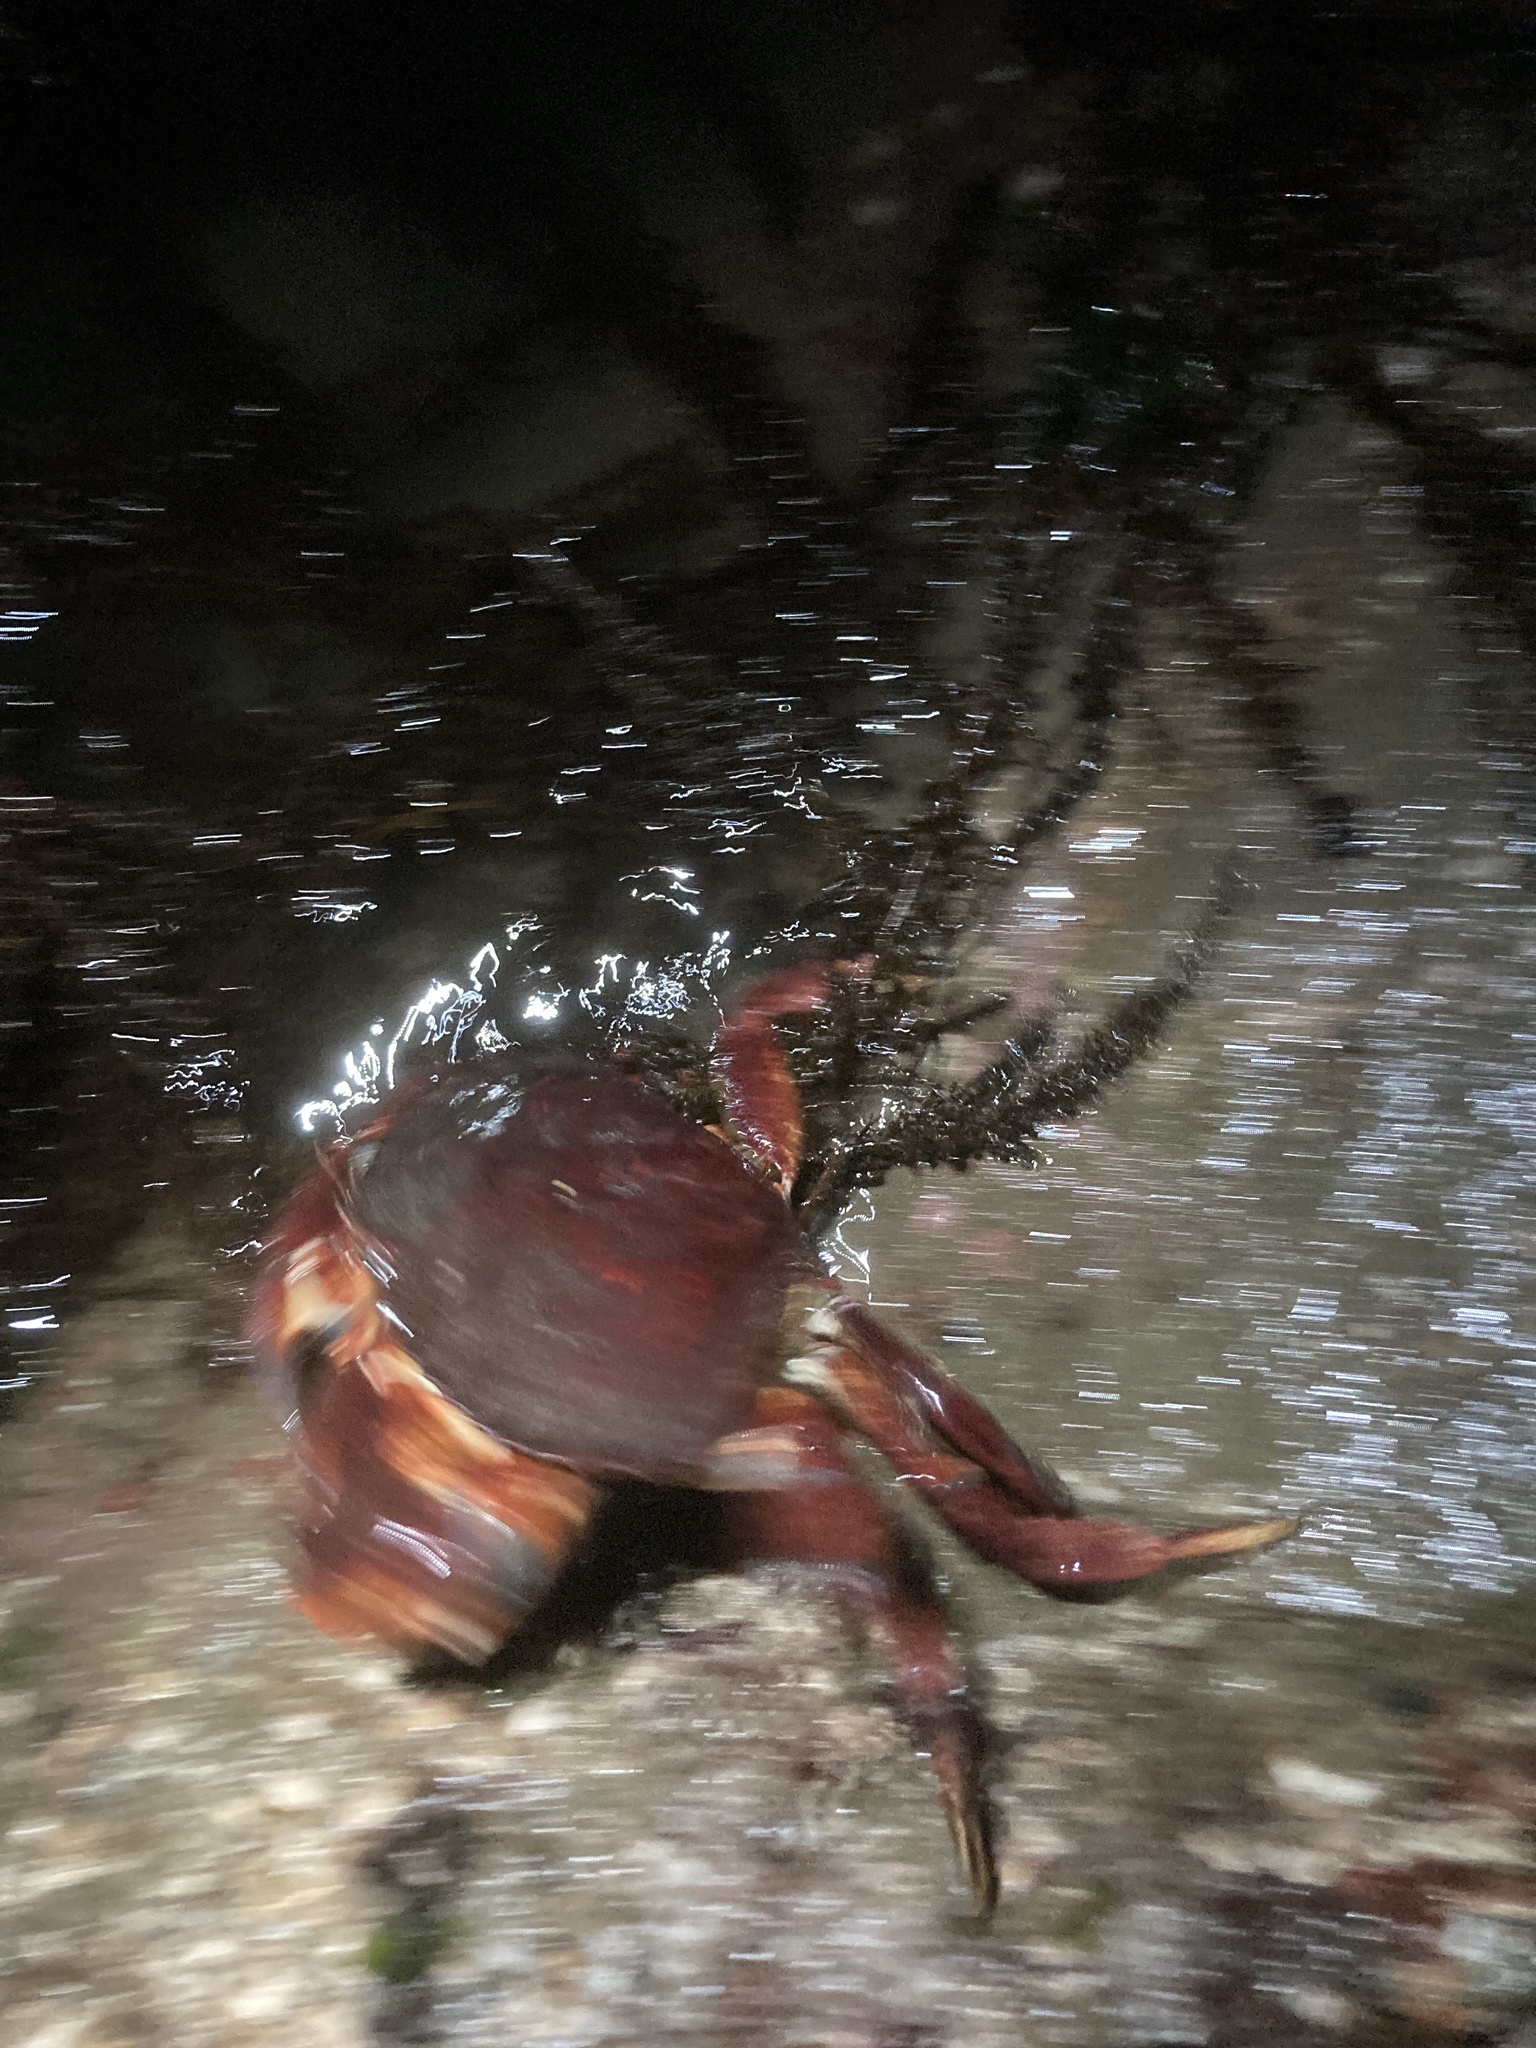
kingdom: Animalia
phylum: Arthropoda
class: Malacostraca
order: Decapoda
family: Cancridae
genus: Cancer
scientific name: Cancer productus
